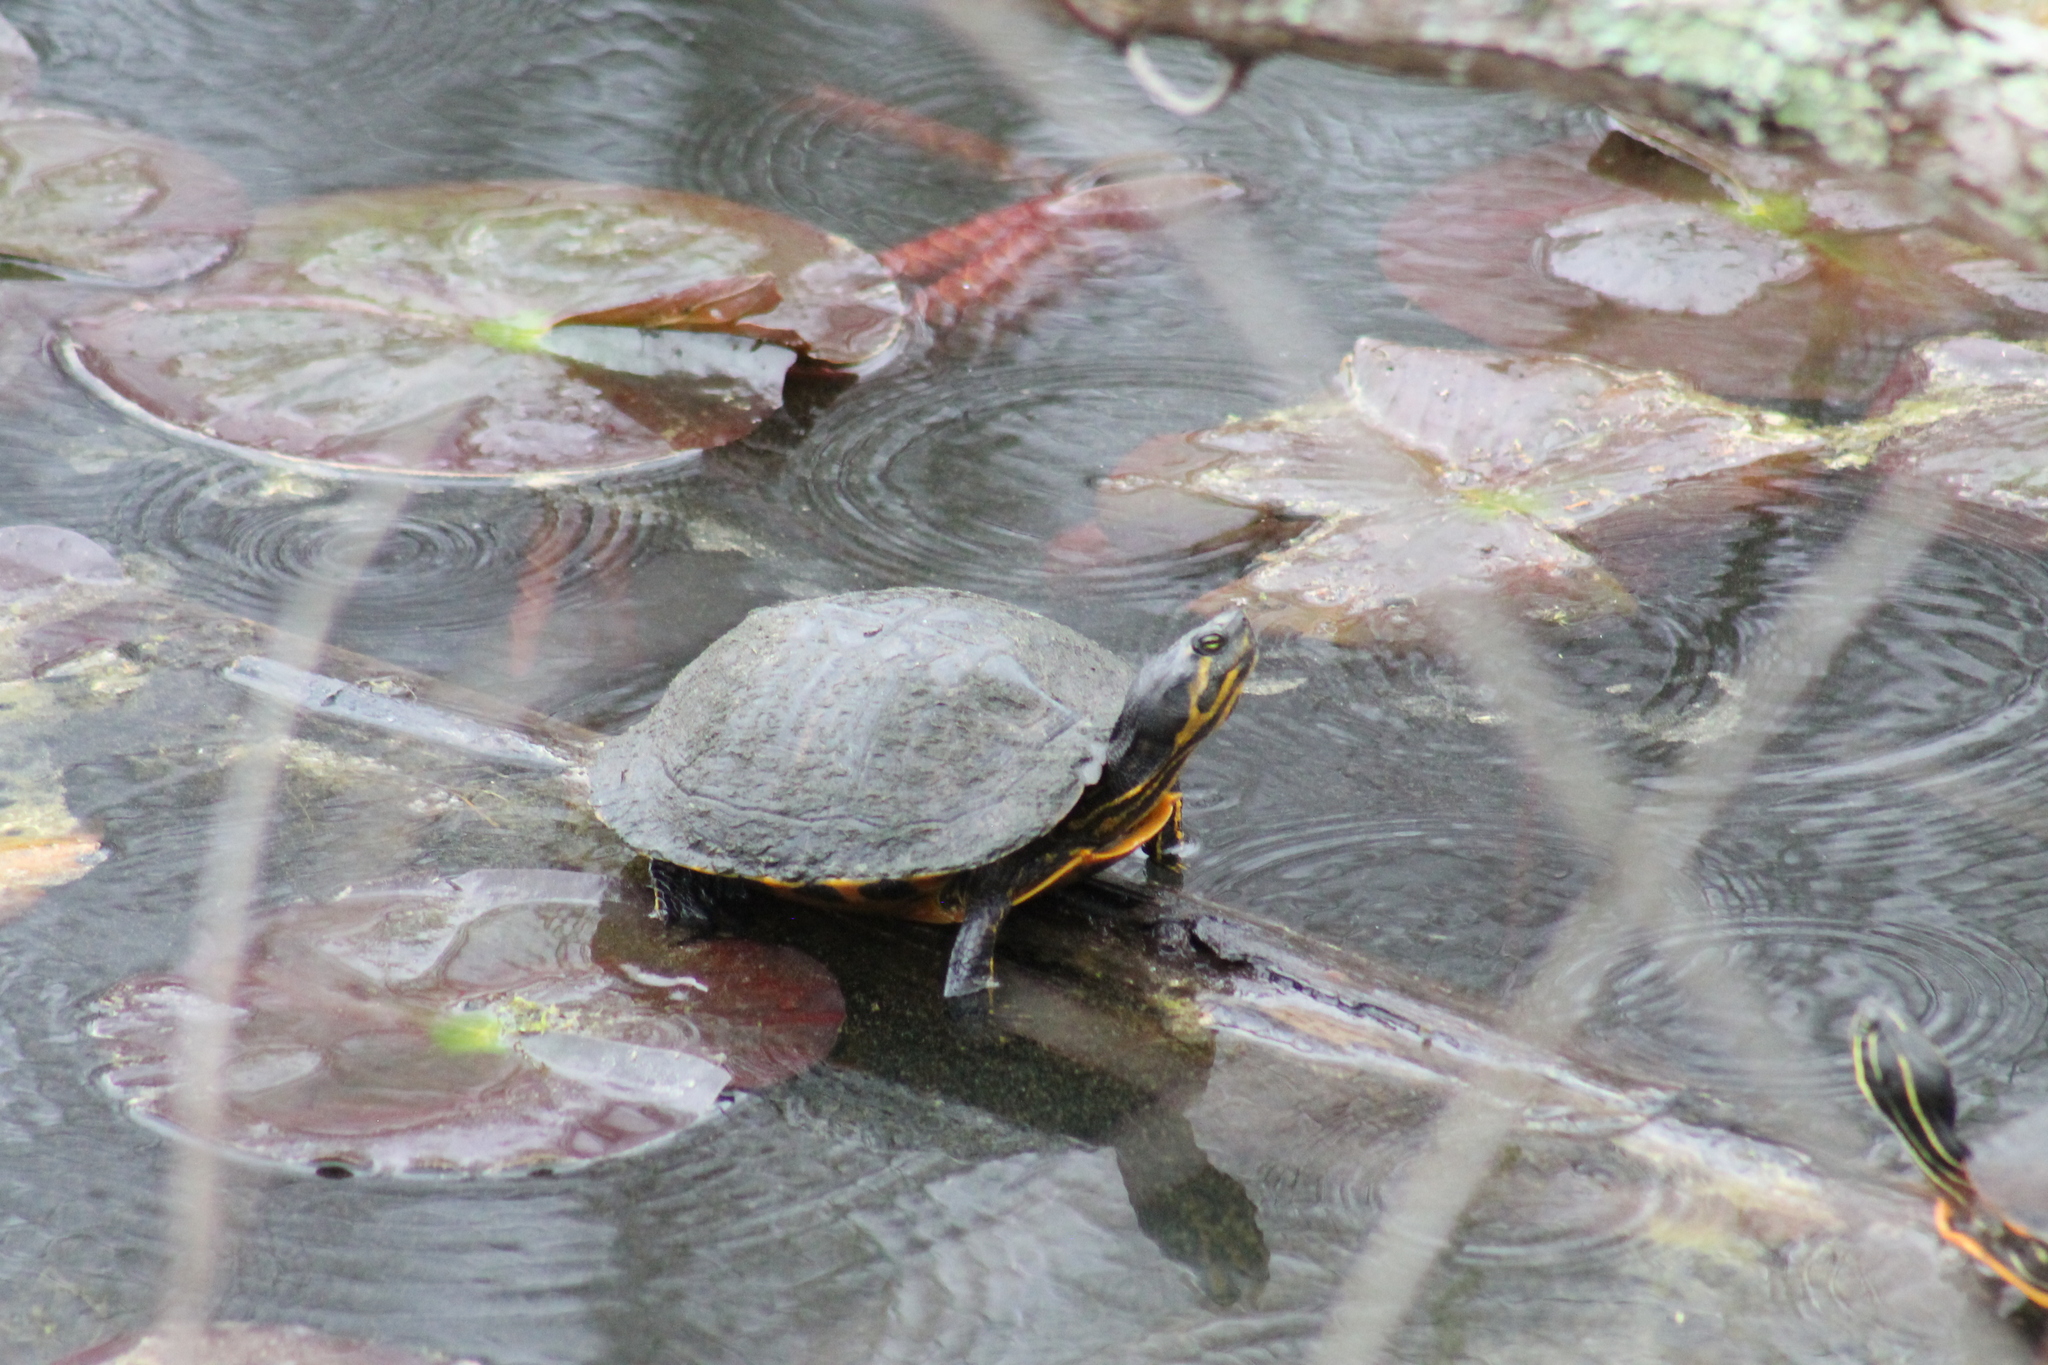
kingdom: Animalia
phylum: Chordata
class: Testudines
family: Emydidae
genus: Trachemys
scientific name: Trachemys scripta
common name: Slider
